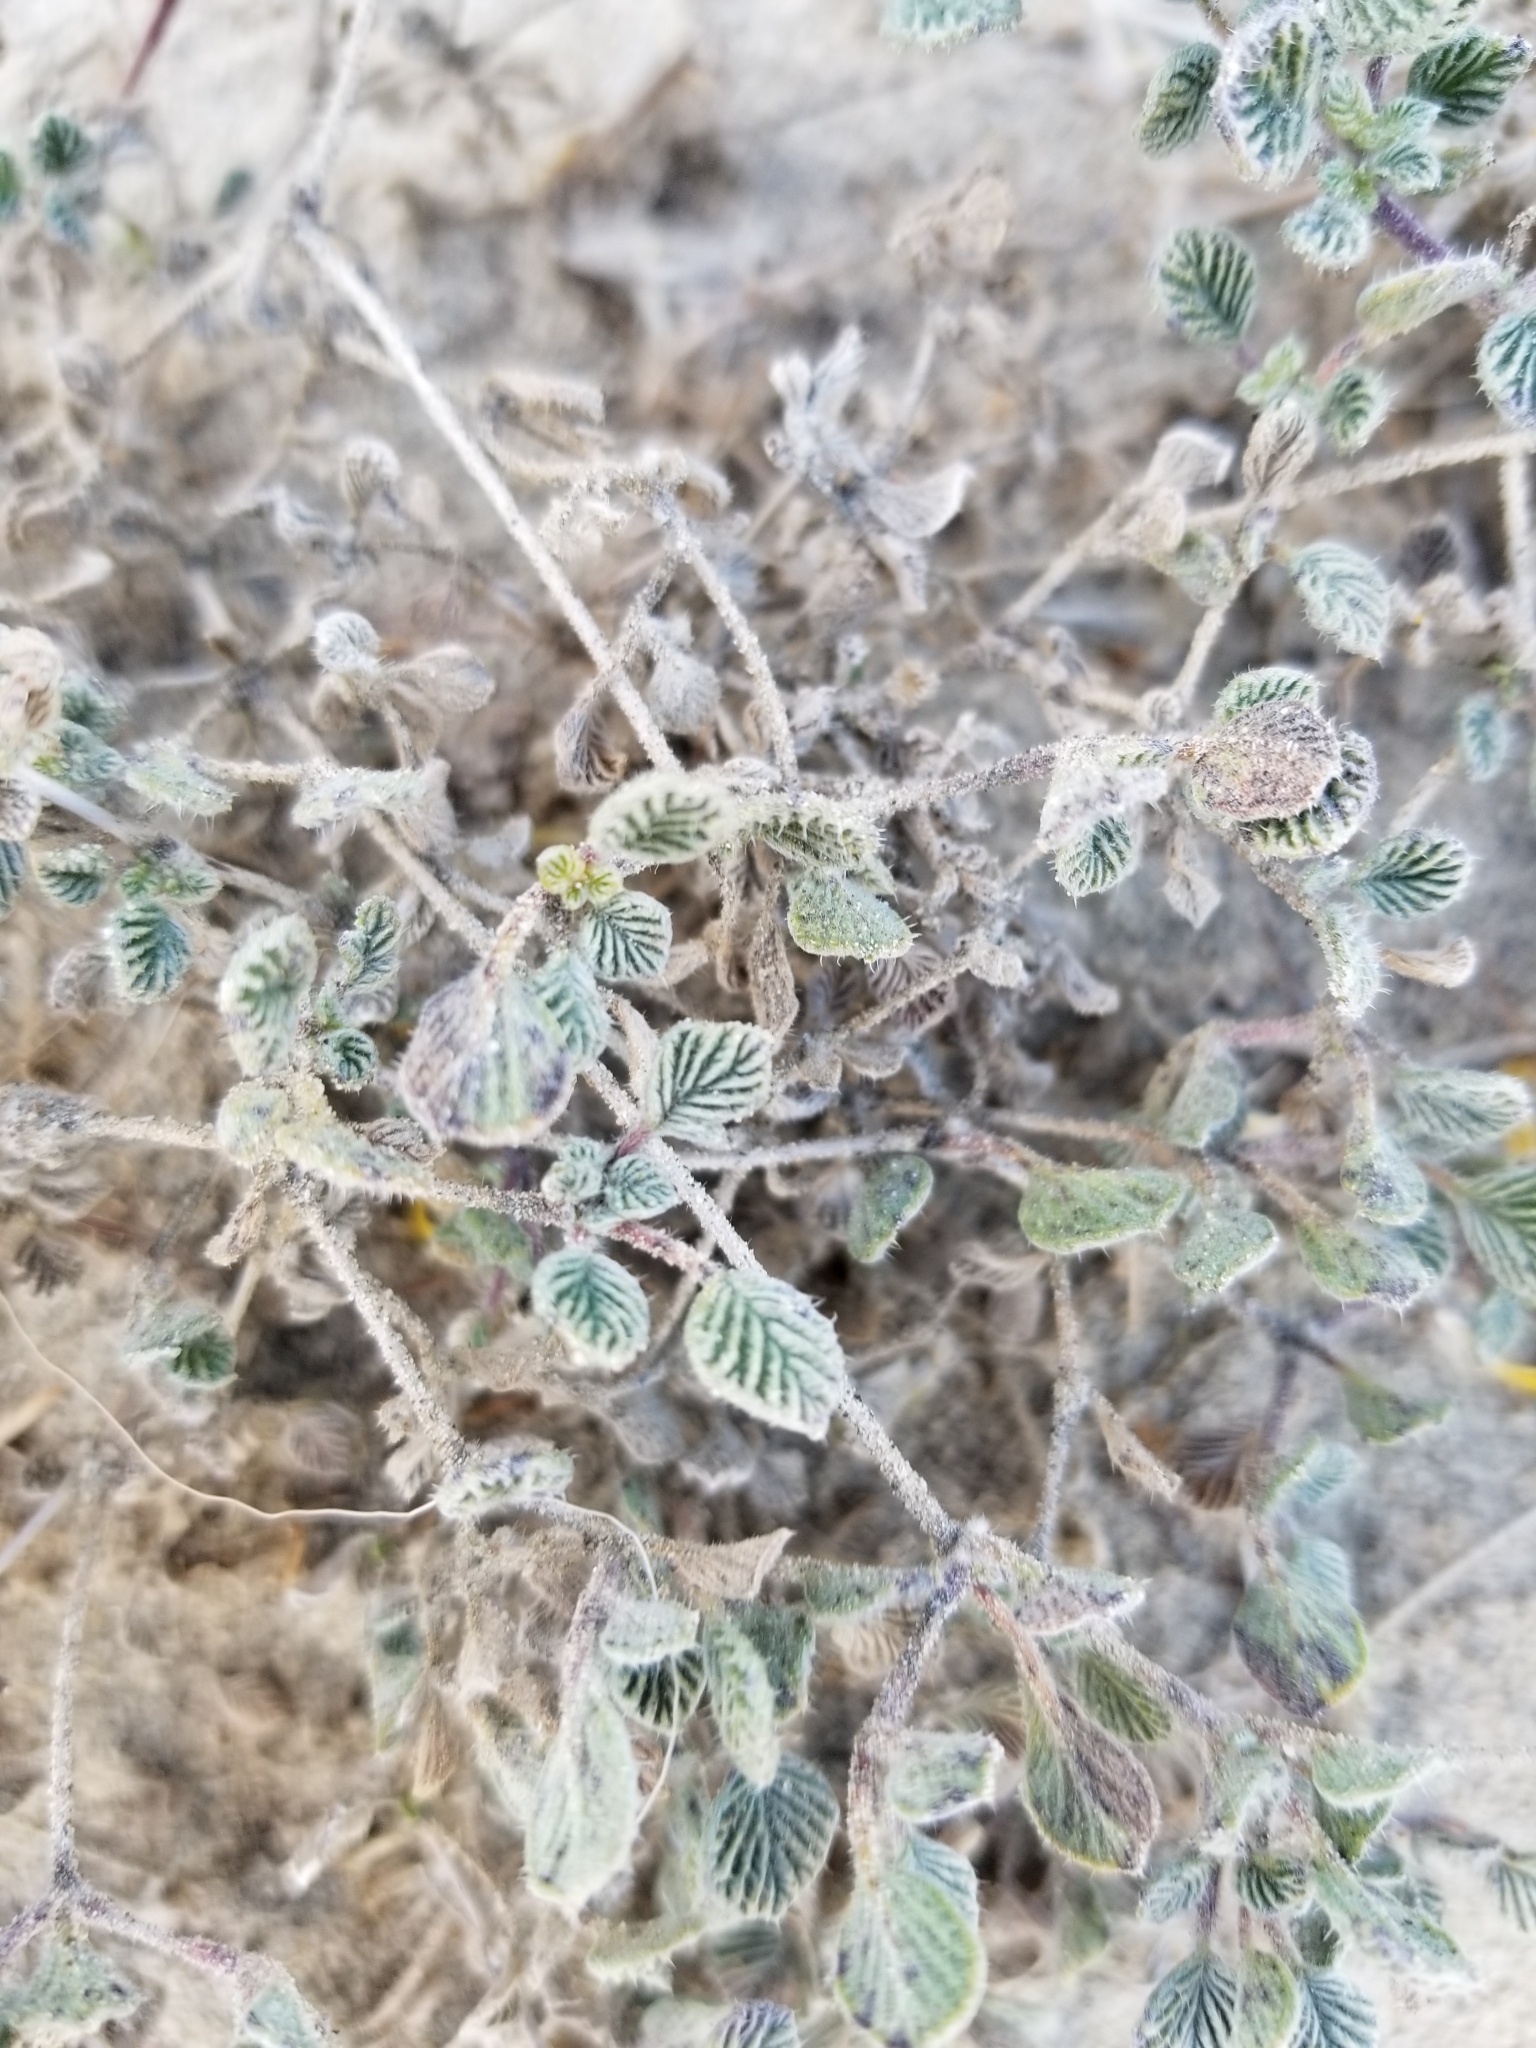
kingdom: Plantae
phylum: Tracheophyta
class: Magnoliopsida
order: Boraginales
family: Ehretiaceae
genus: Tiquilia
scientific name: Tiquilia plicata
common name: Fan-leaf tiquilia
